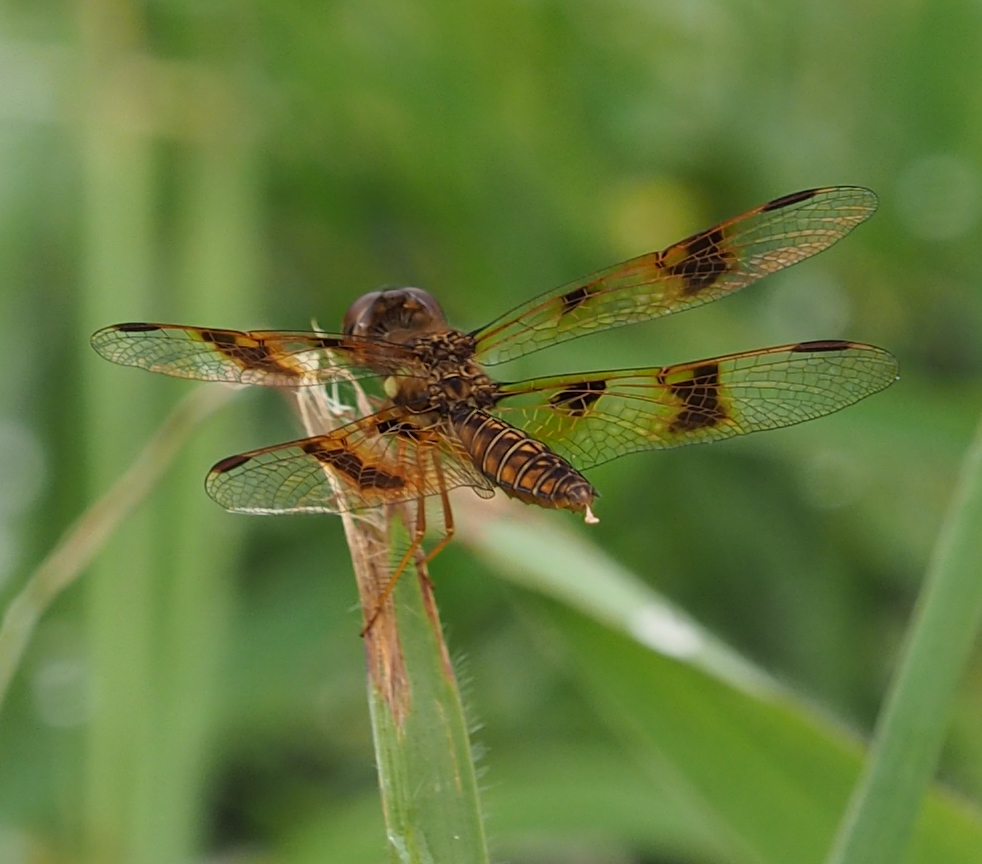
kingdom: Animalia
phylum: Arthropoda
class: Insecta
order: Odonata
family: Libellulidae
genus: Perithemis
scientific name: Perithemis tenera
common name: Eastern amberwing
